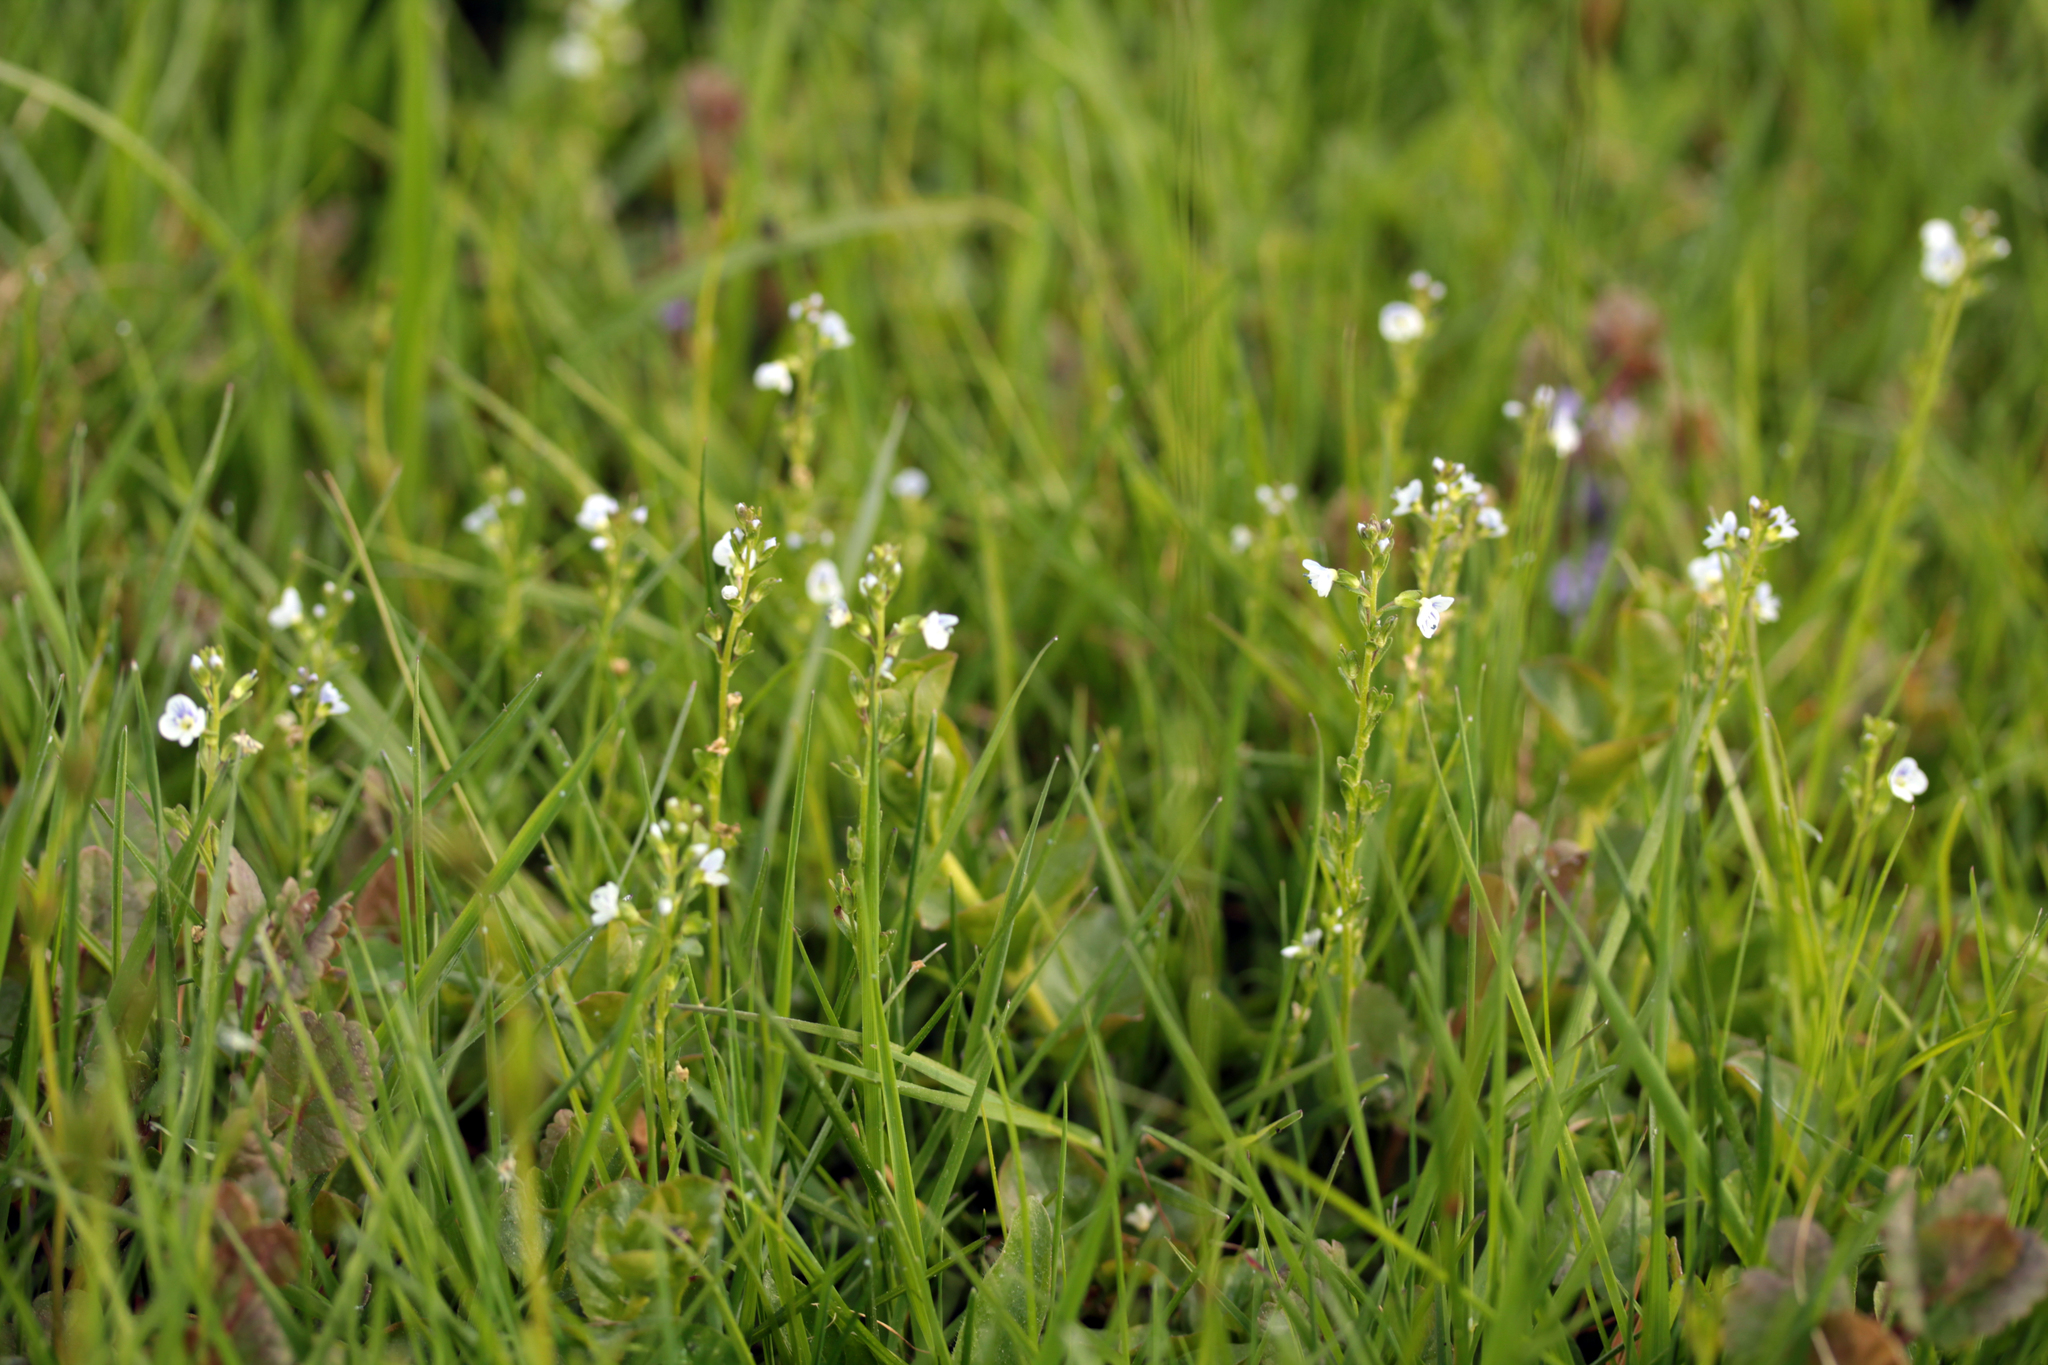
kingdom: Plantae
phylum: Tracheophyta
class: Magnoliopsida
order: Lamiales
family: Plantaginaceae
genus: Veronica
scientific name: Veronica serpyllifolia
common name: Thyme-leaved speedwell
